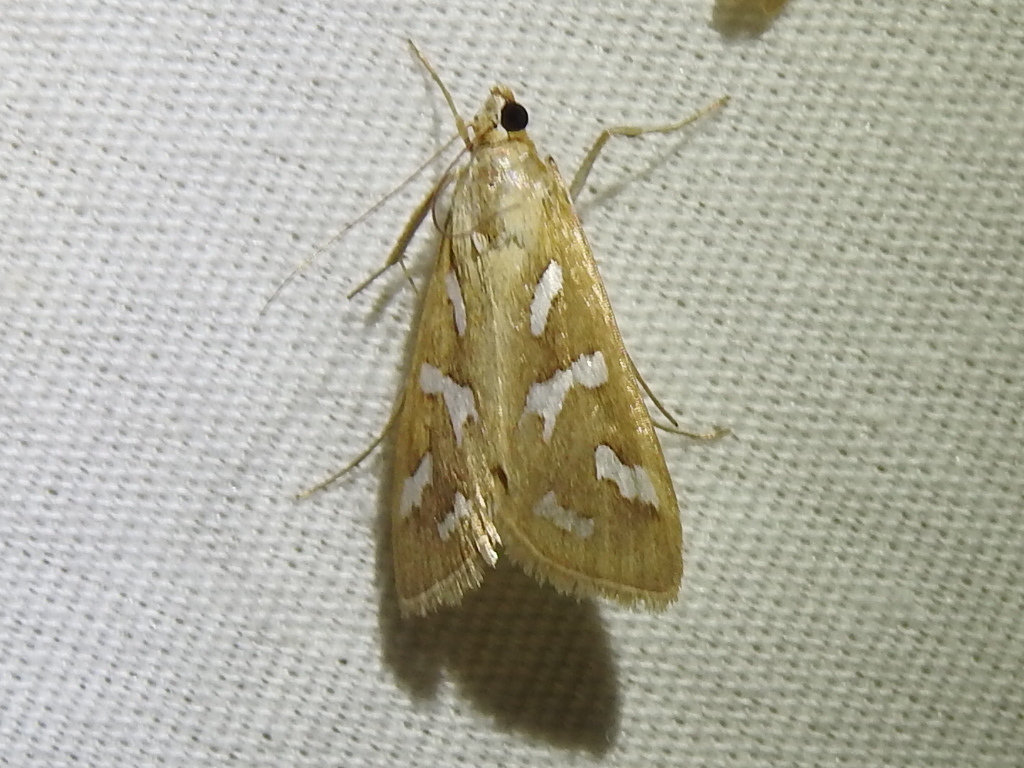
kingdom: Animalia
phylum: Arthropoda
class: Insecta
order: Lepidoptera
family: Crambidae
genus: Diastictis
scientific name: Diastictis fracturalis
